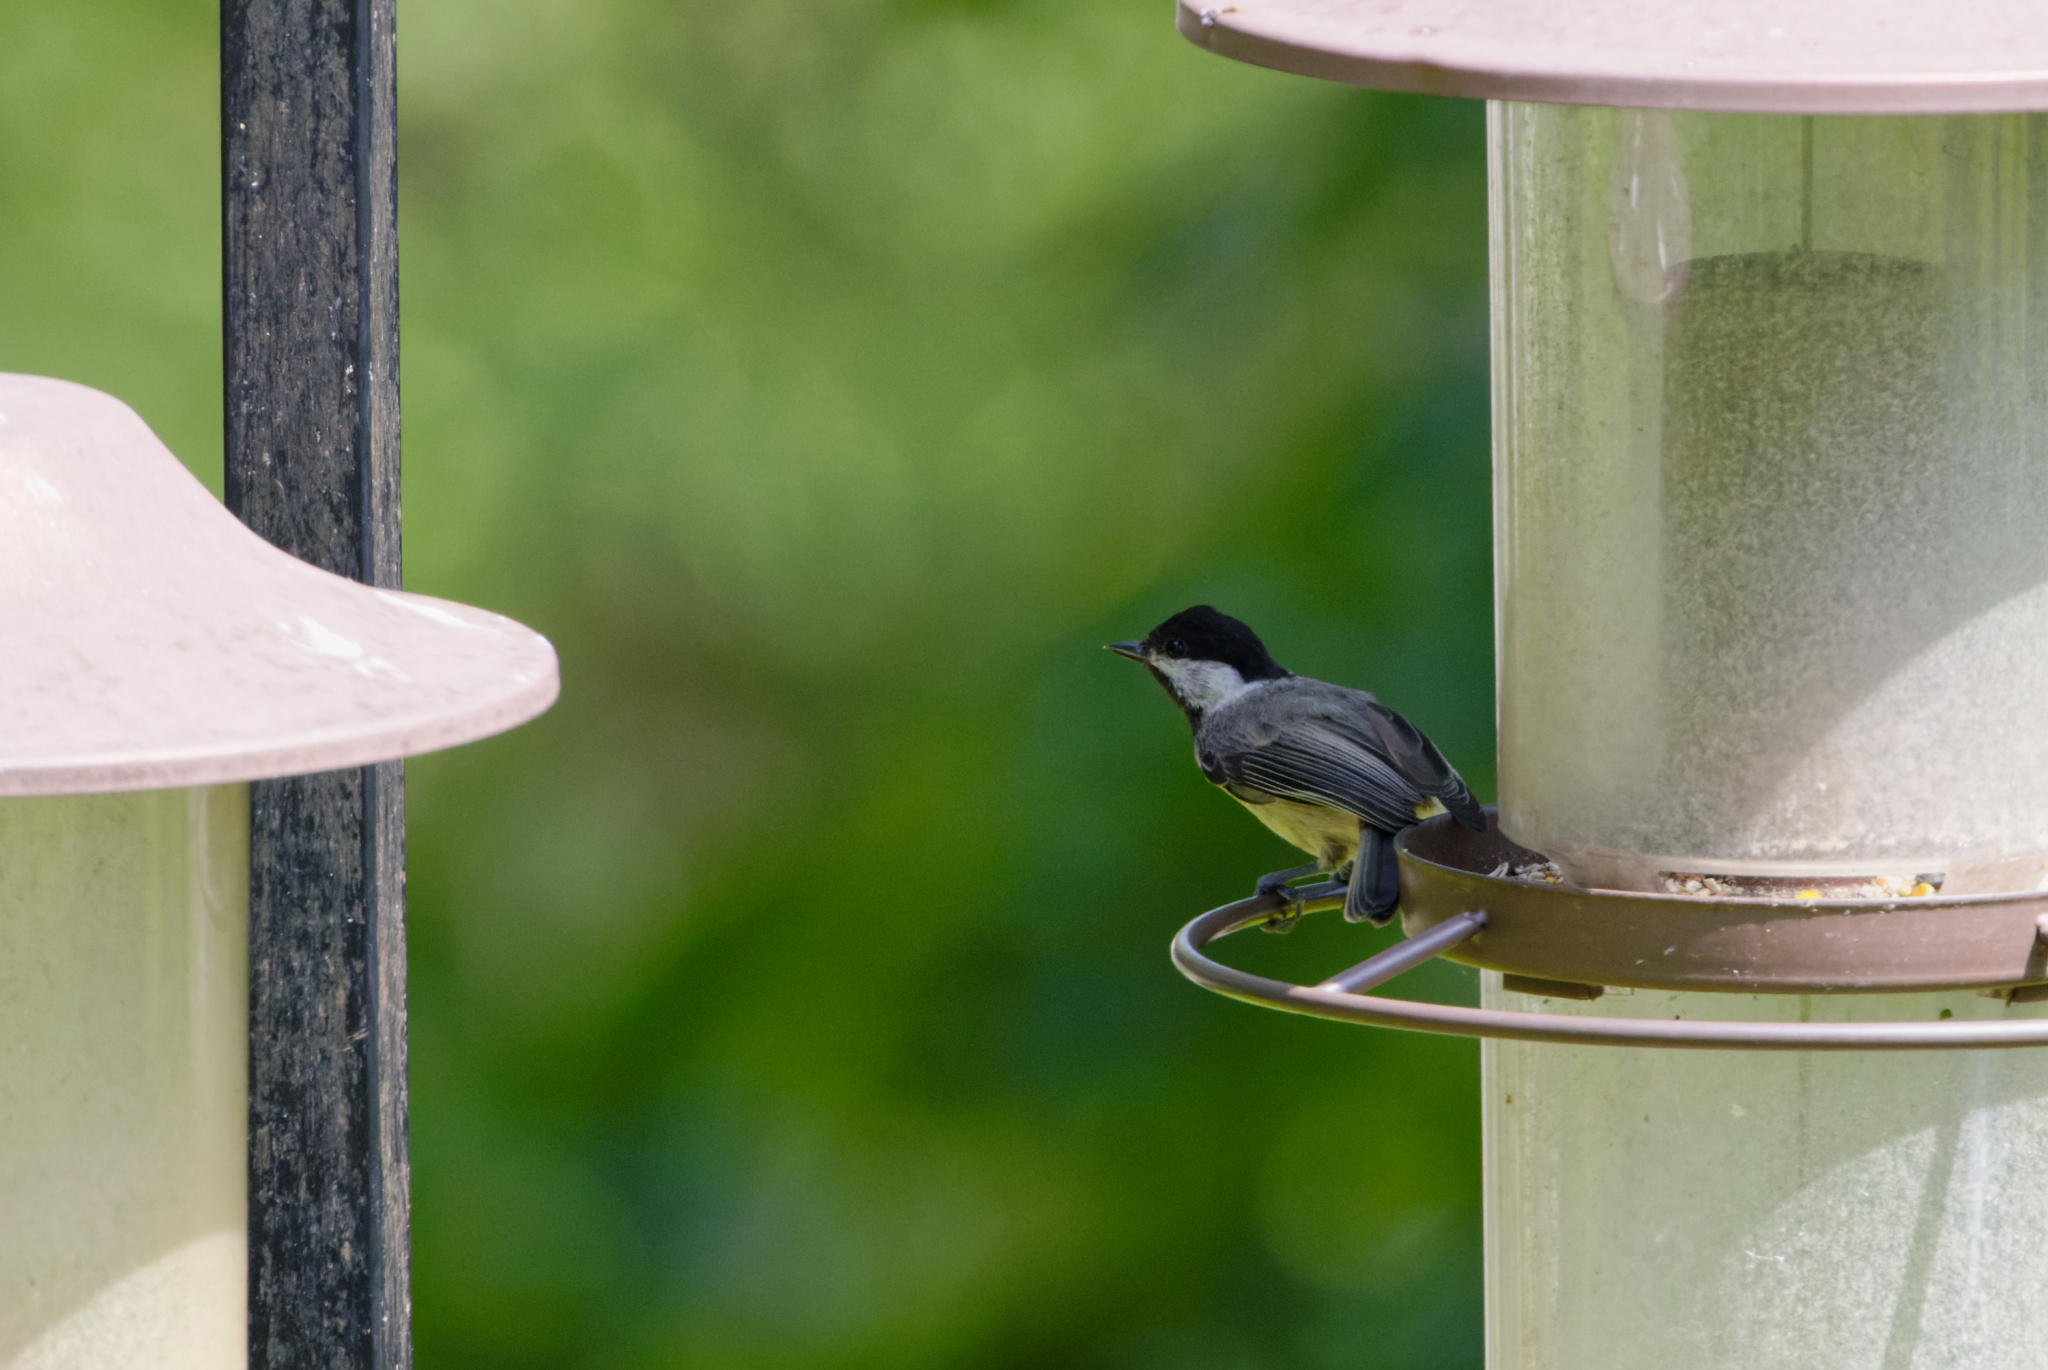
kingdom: Animalia
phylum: Chordata
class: Aves
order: Passeriformes
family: Paridae
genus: Poecile
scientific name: Poecile carolinensis
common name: Carolina chickadee
